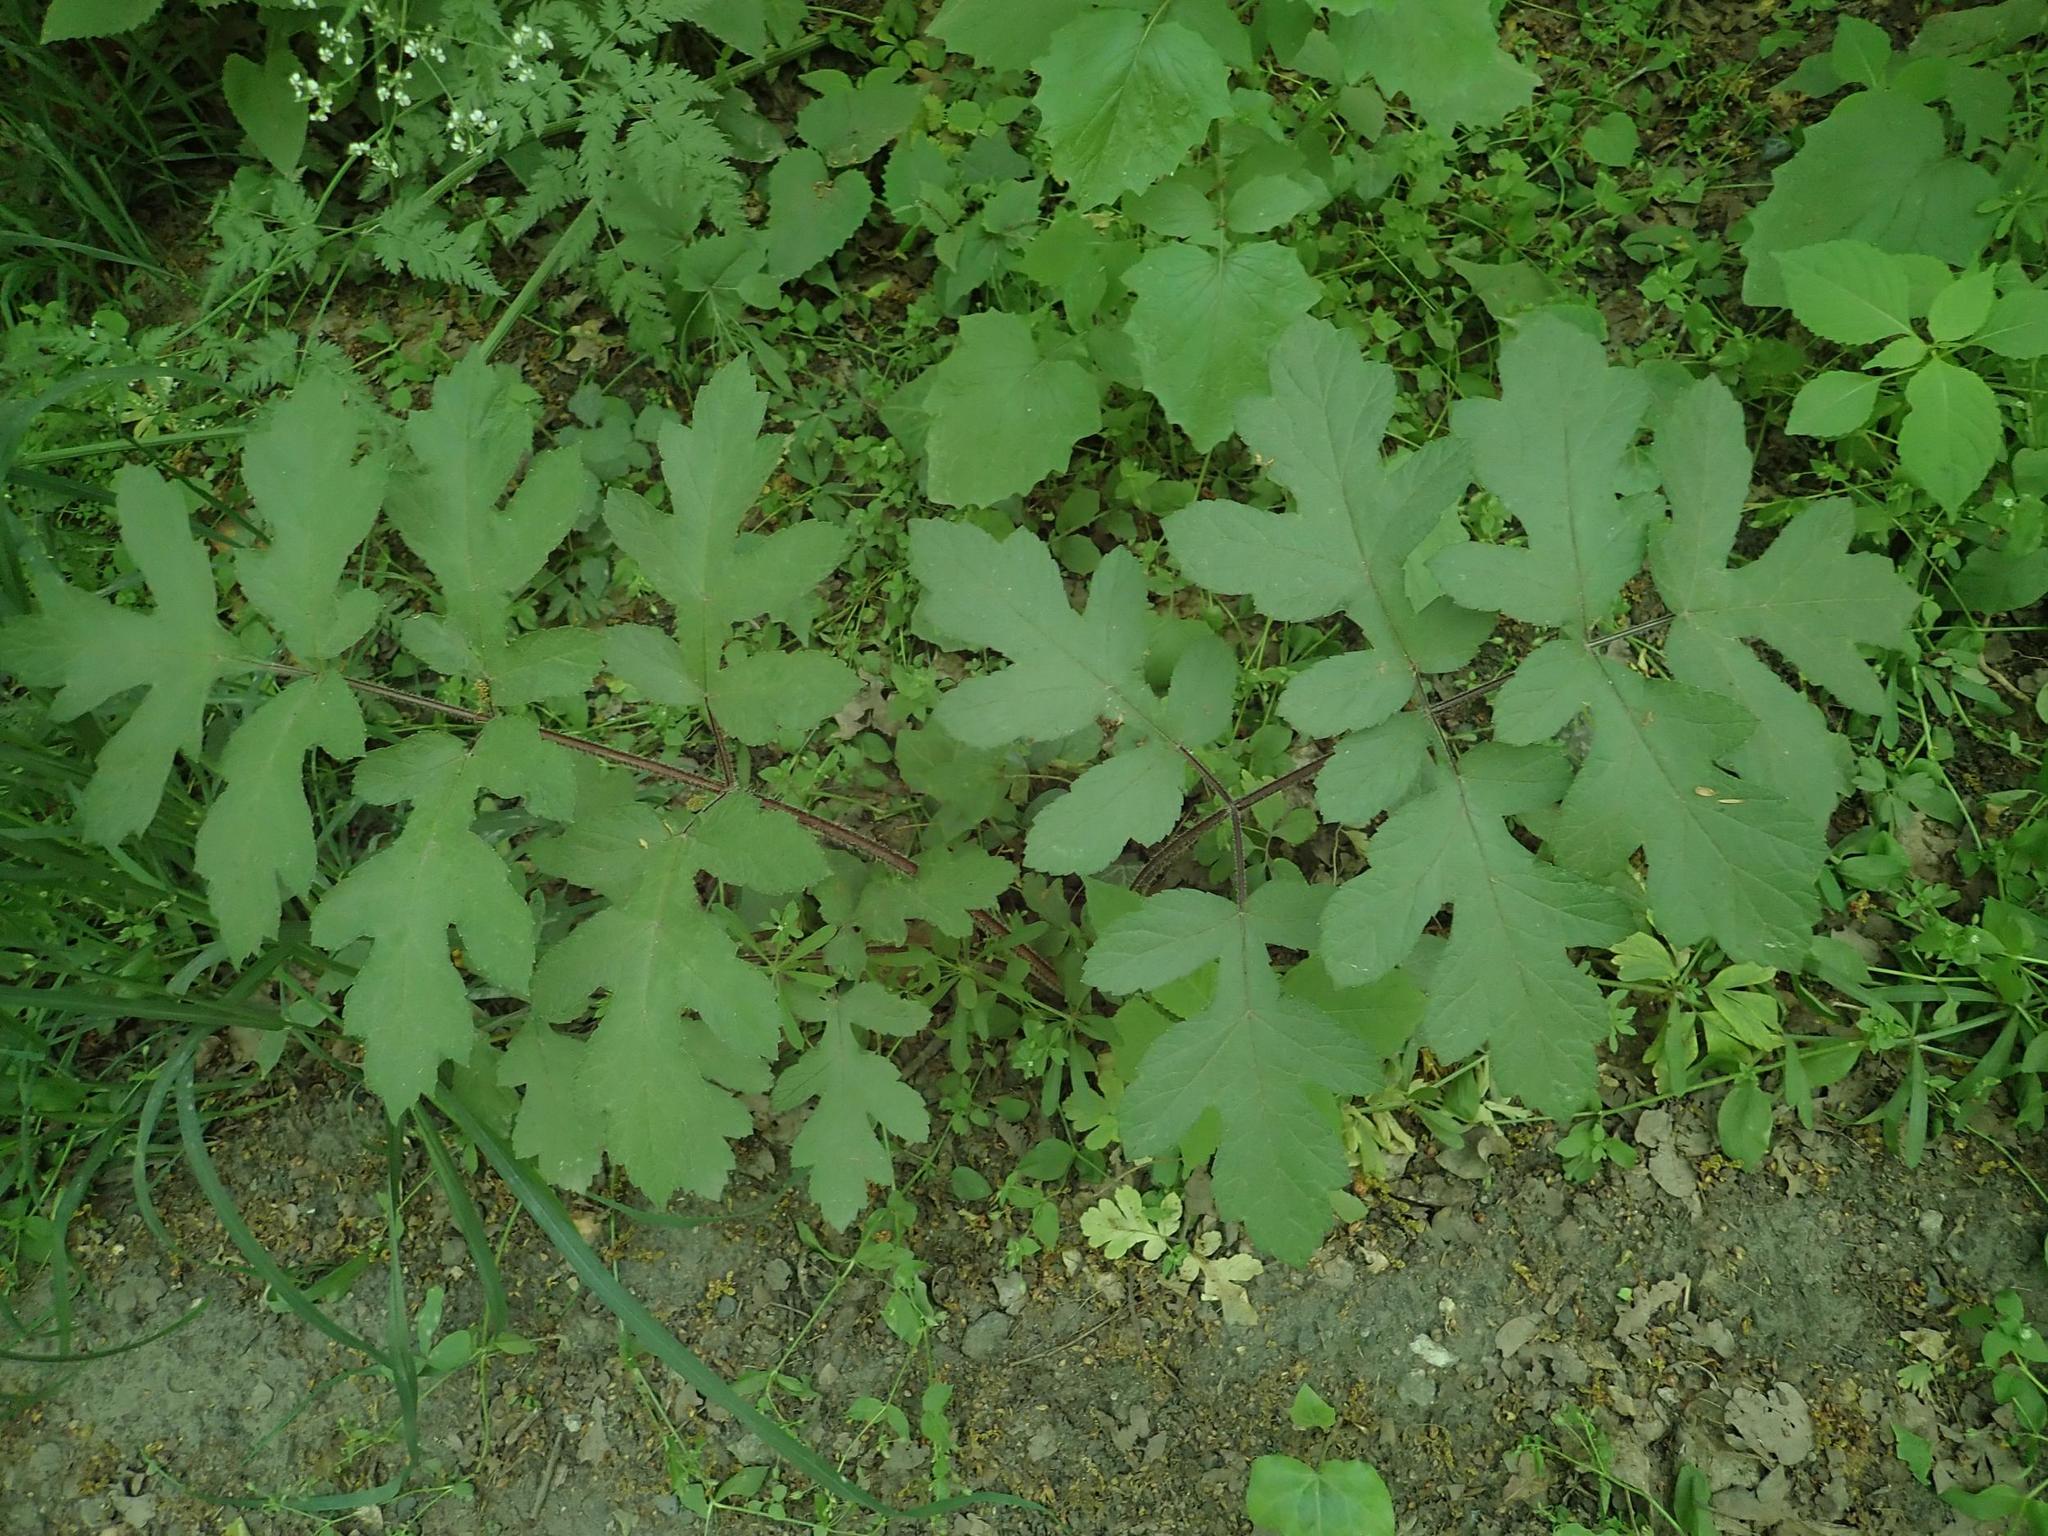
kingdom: Plantae
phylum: Tracheophyta
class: Magnoliopsida
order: Apiales
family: Apiaceae
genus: Heracleum
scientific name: Heracleum sphondylium
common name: Hogweed
